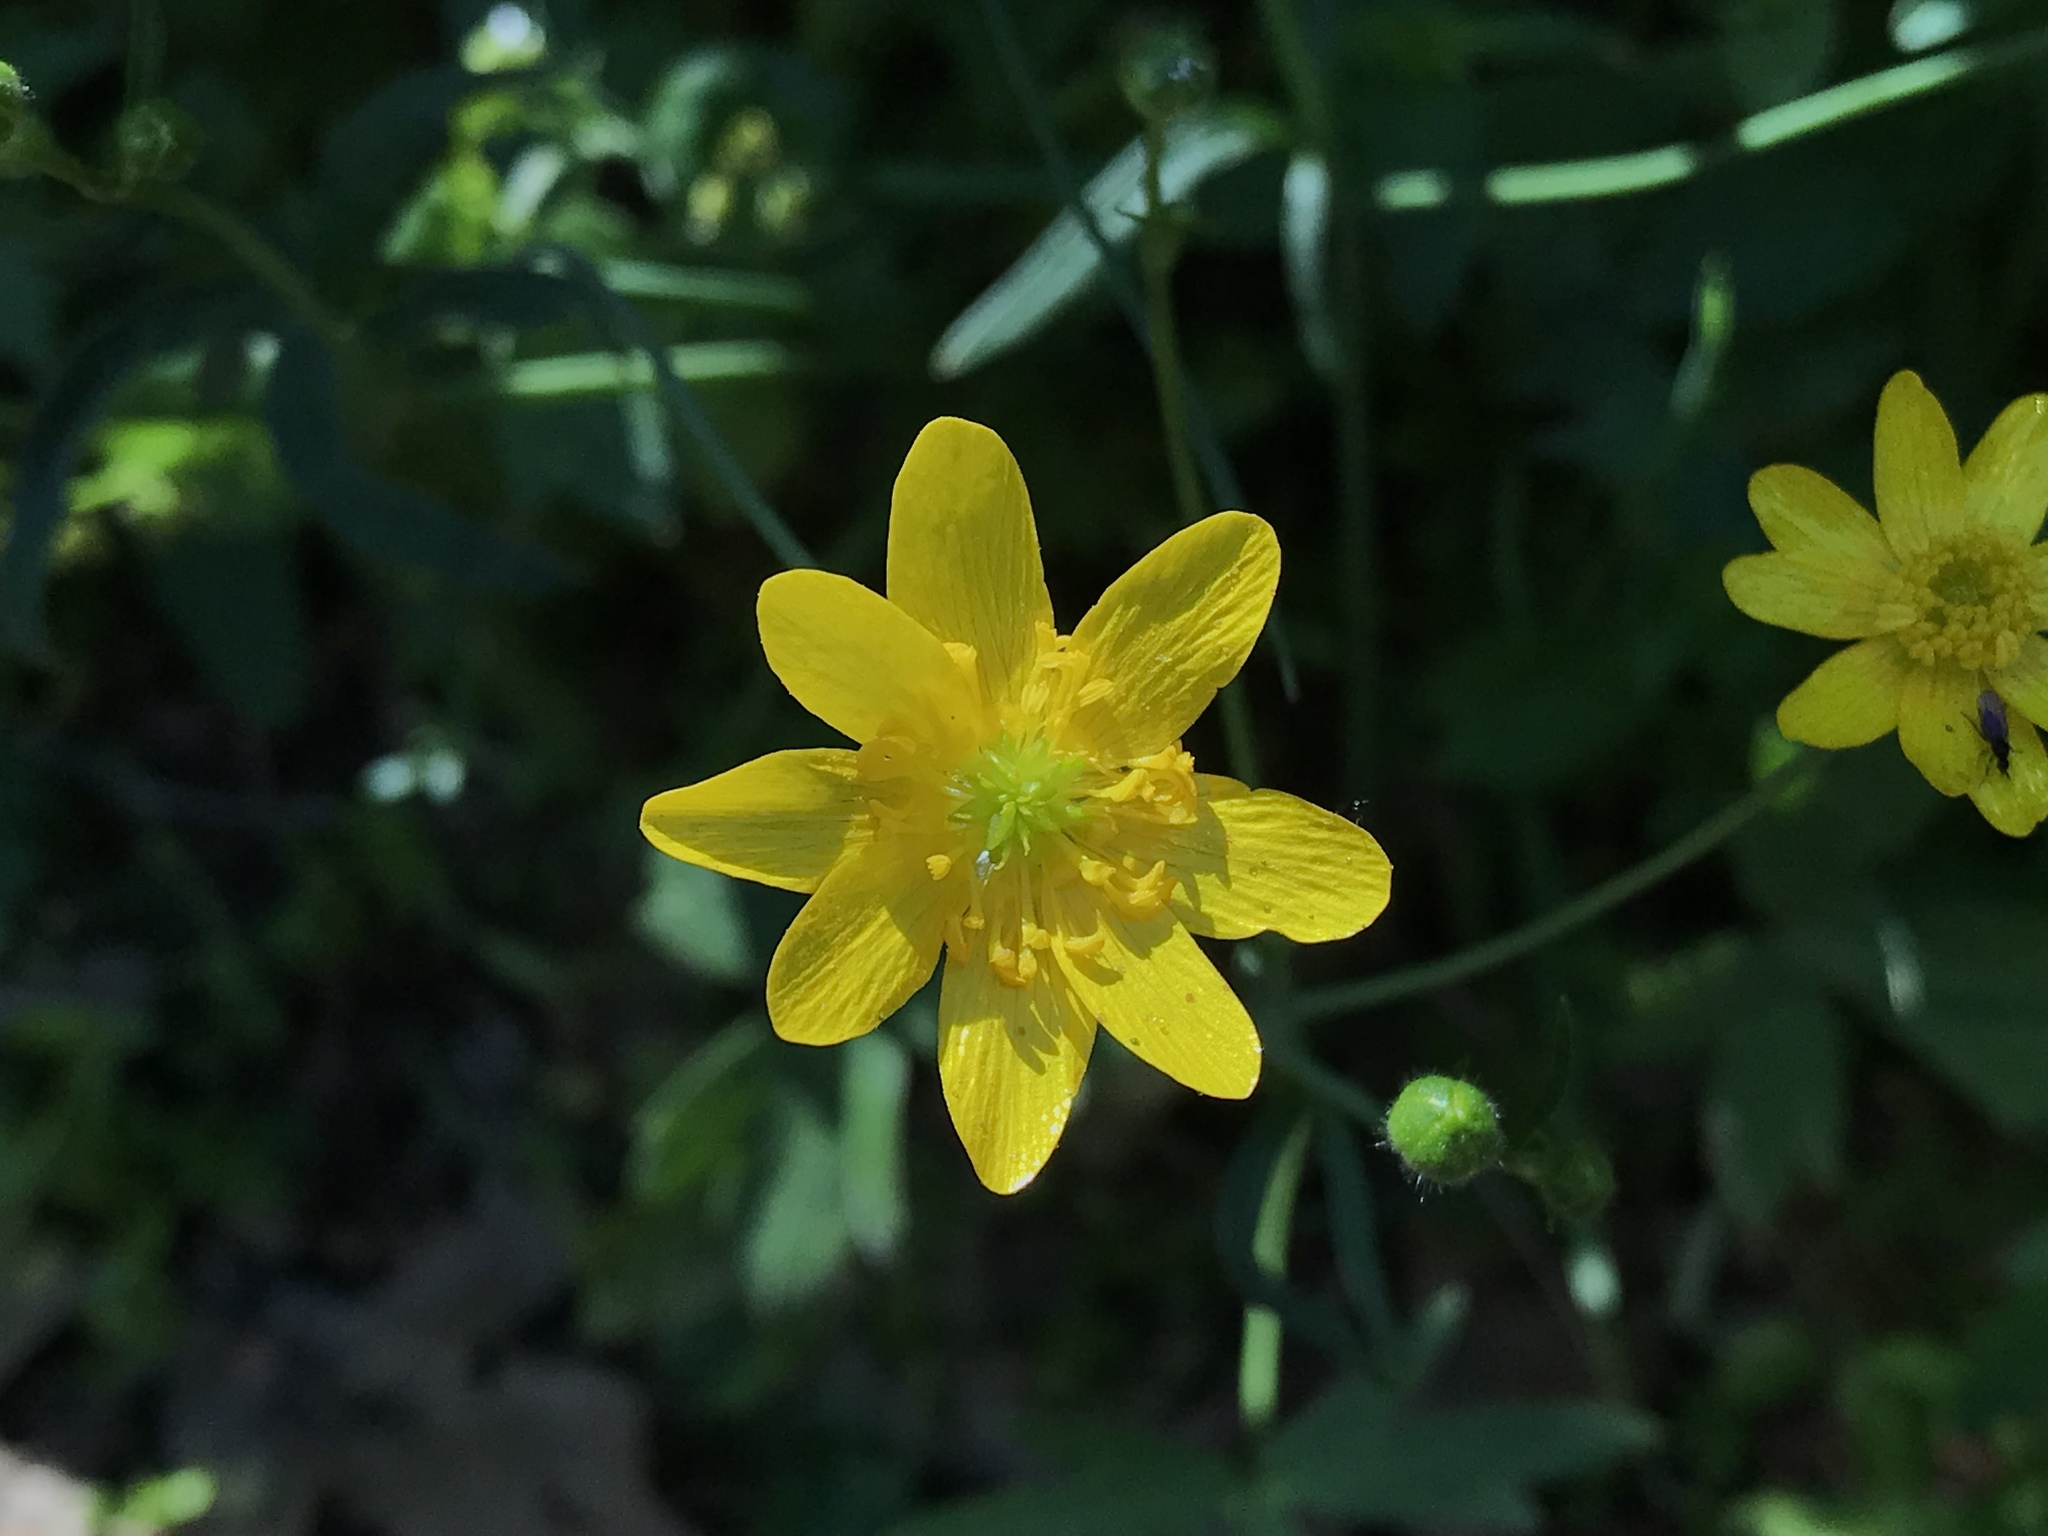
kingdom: Plantae
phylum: Tracheophyta
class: Magnoliopsida
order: Ranunculales
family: Ranunculaceae
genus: Ranunculus
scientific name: Ranunculus californicus
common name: California buttercup
